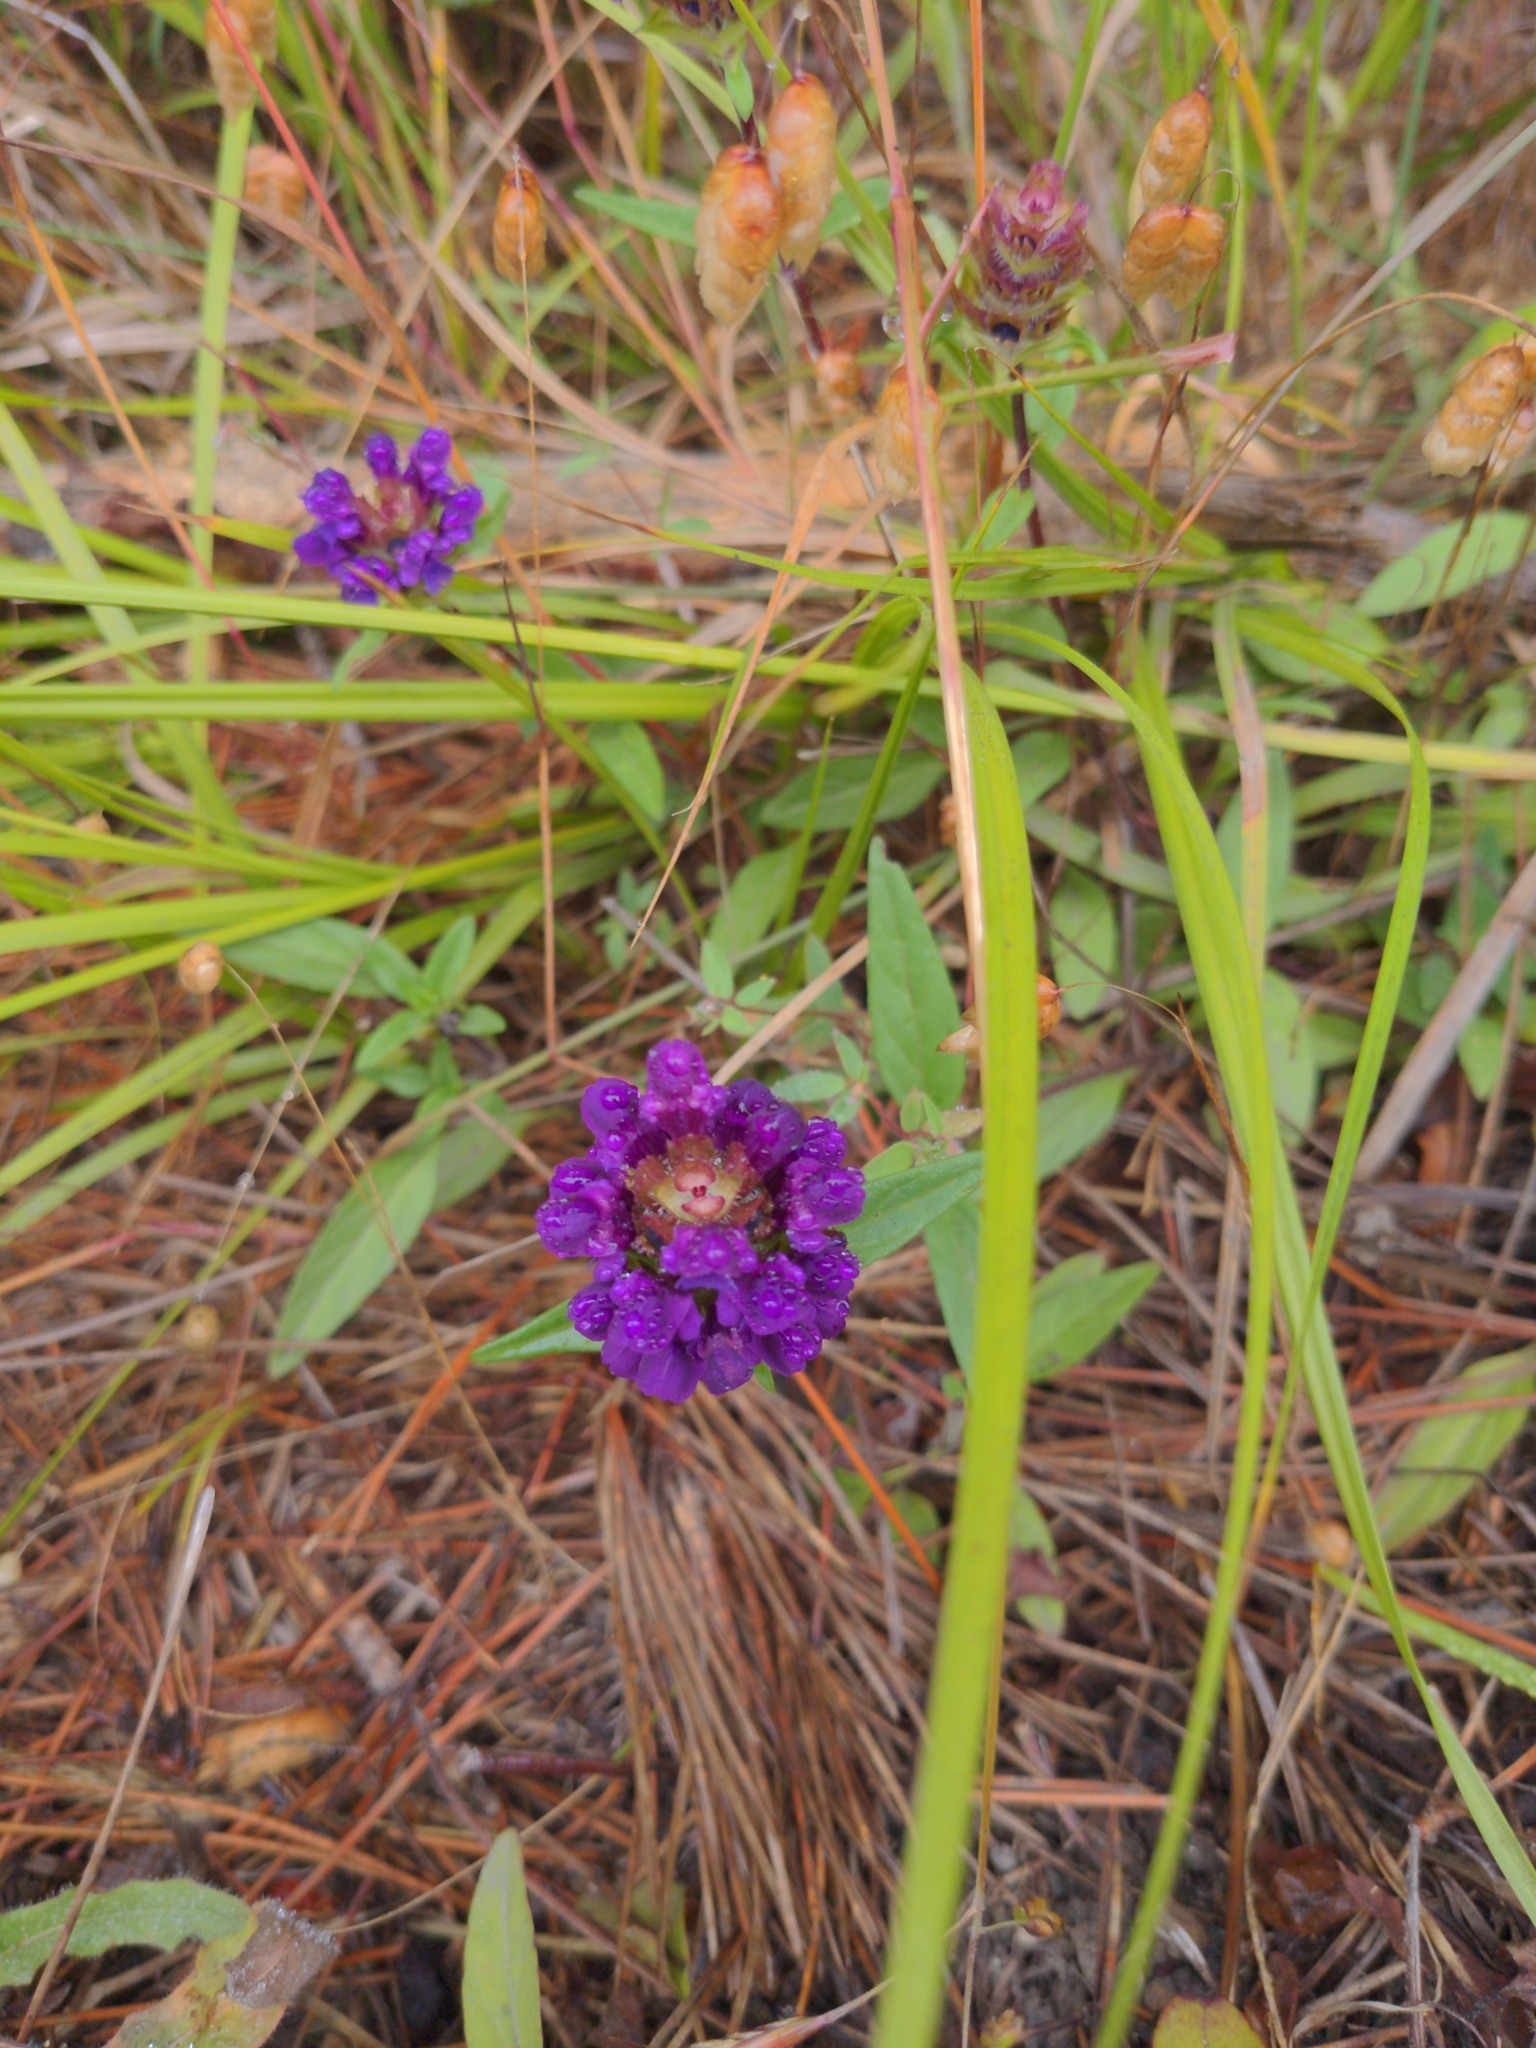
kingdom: Plantae
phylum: Tracheophyta
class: Magnoliopsida
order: Lamiales
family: Lamiaceae
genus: Prunella
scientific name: Prunella vulgaris
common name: Heal-all
